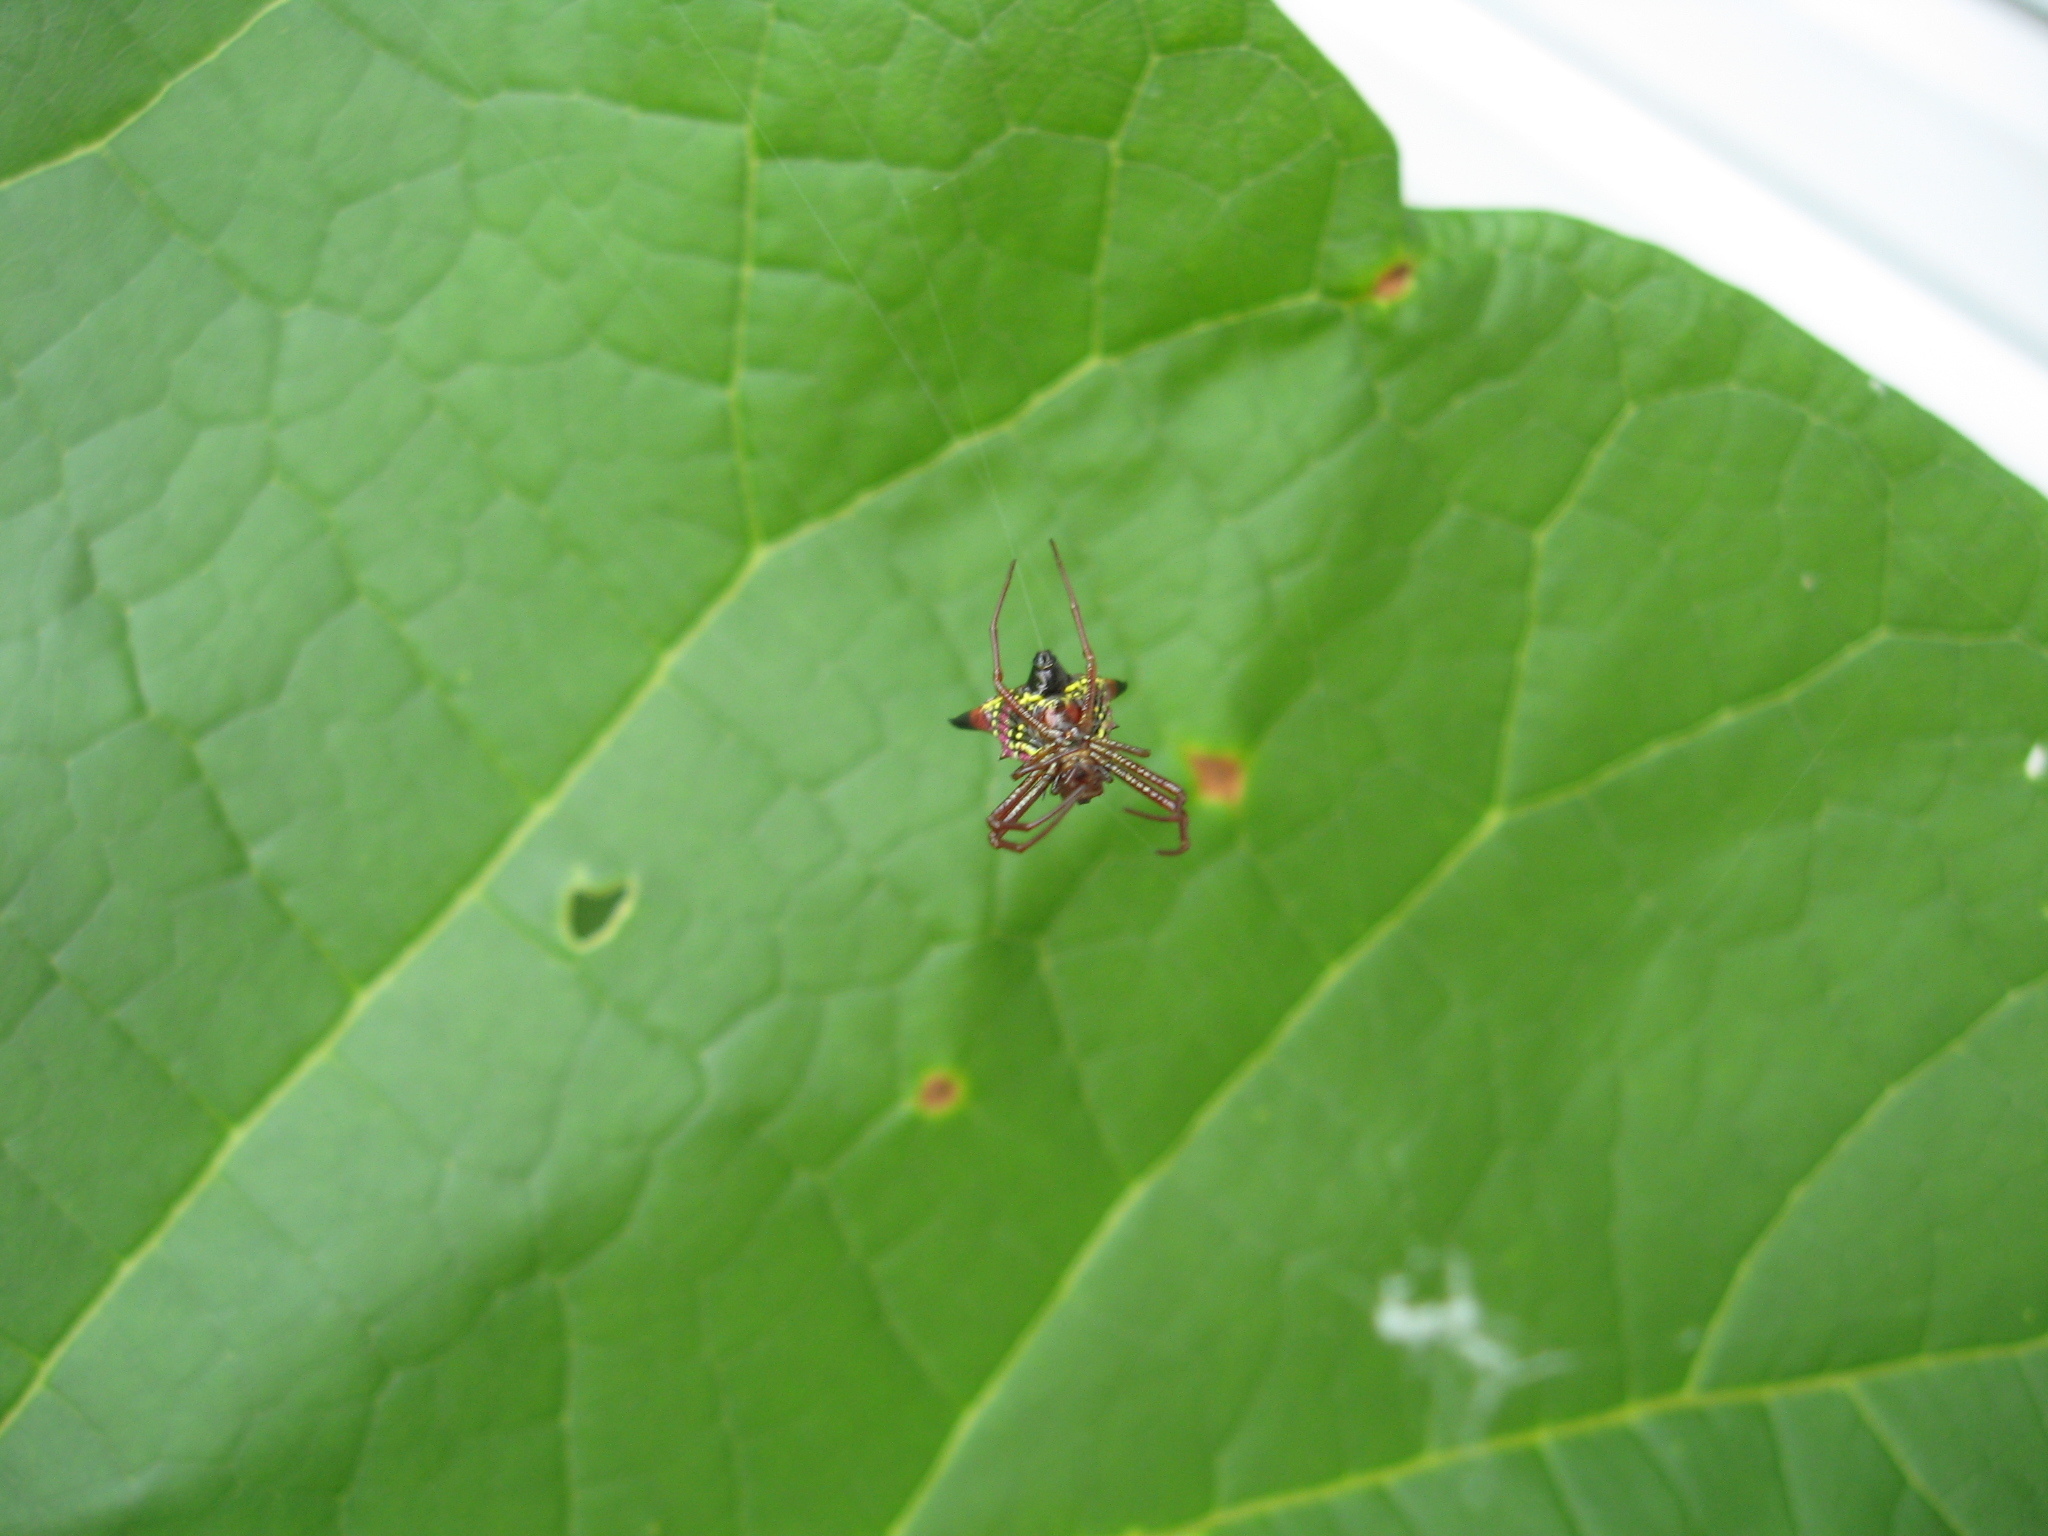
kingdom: Animalia
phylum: Arthropoda
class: Arachnida
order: Araneae
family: Araneidae
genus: Micrathena
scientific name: Micrathena sagittata
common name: Orb weavers
